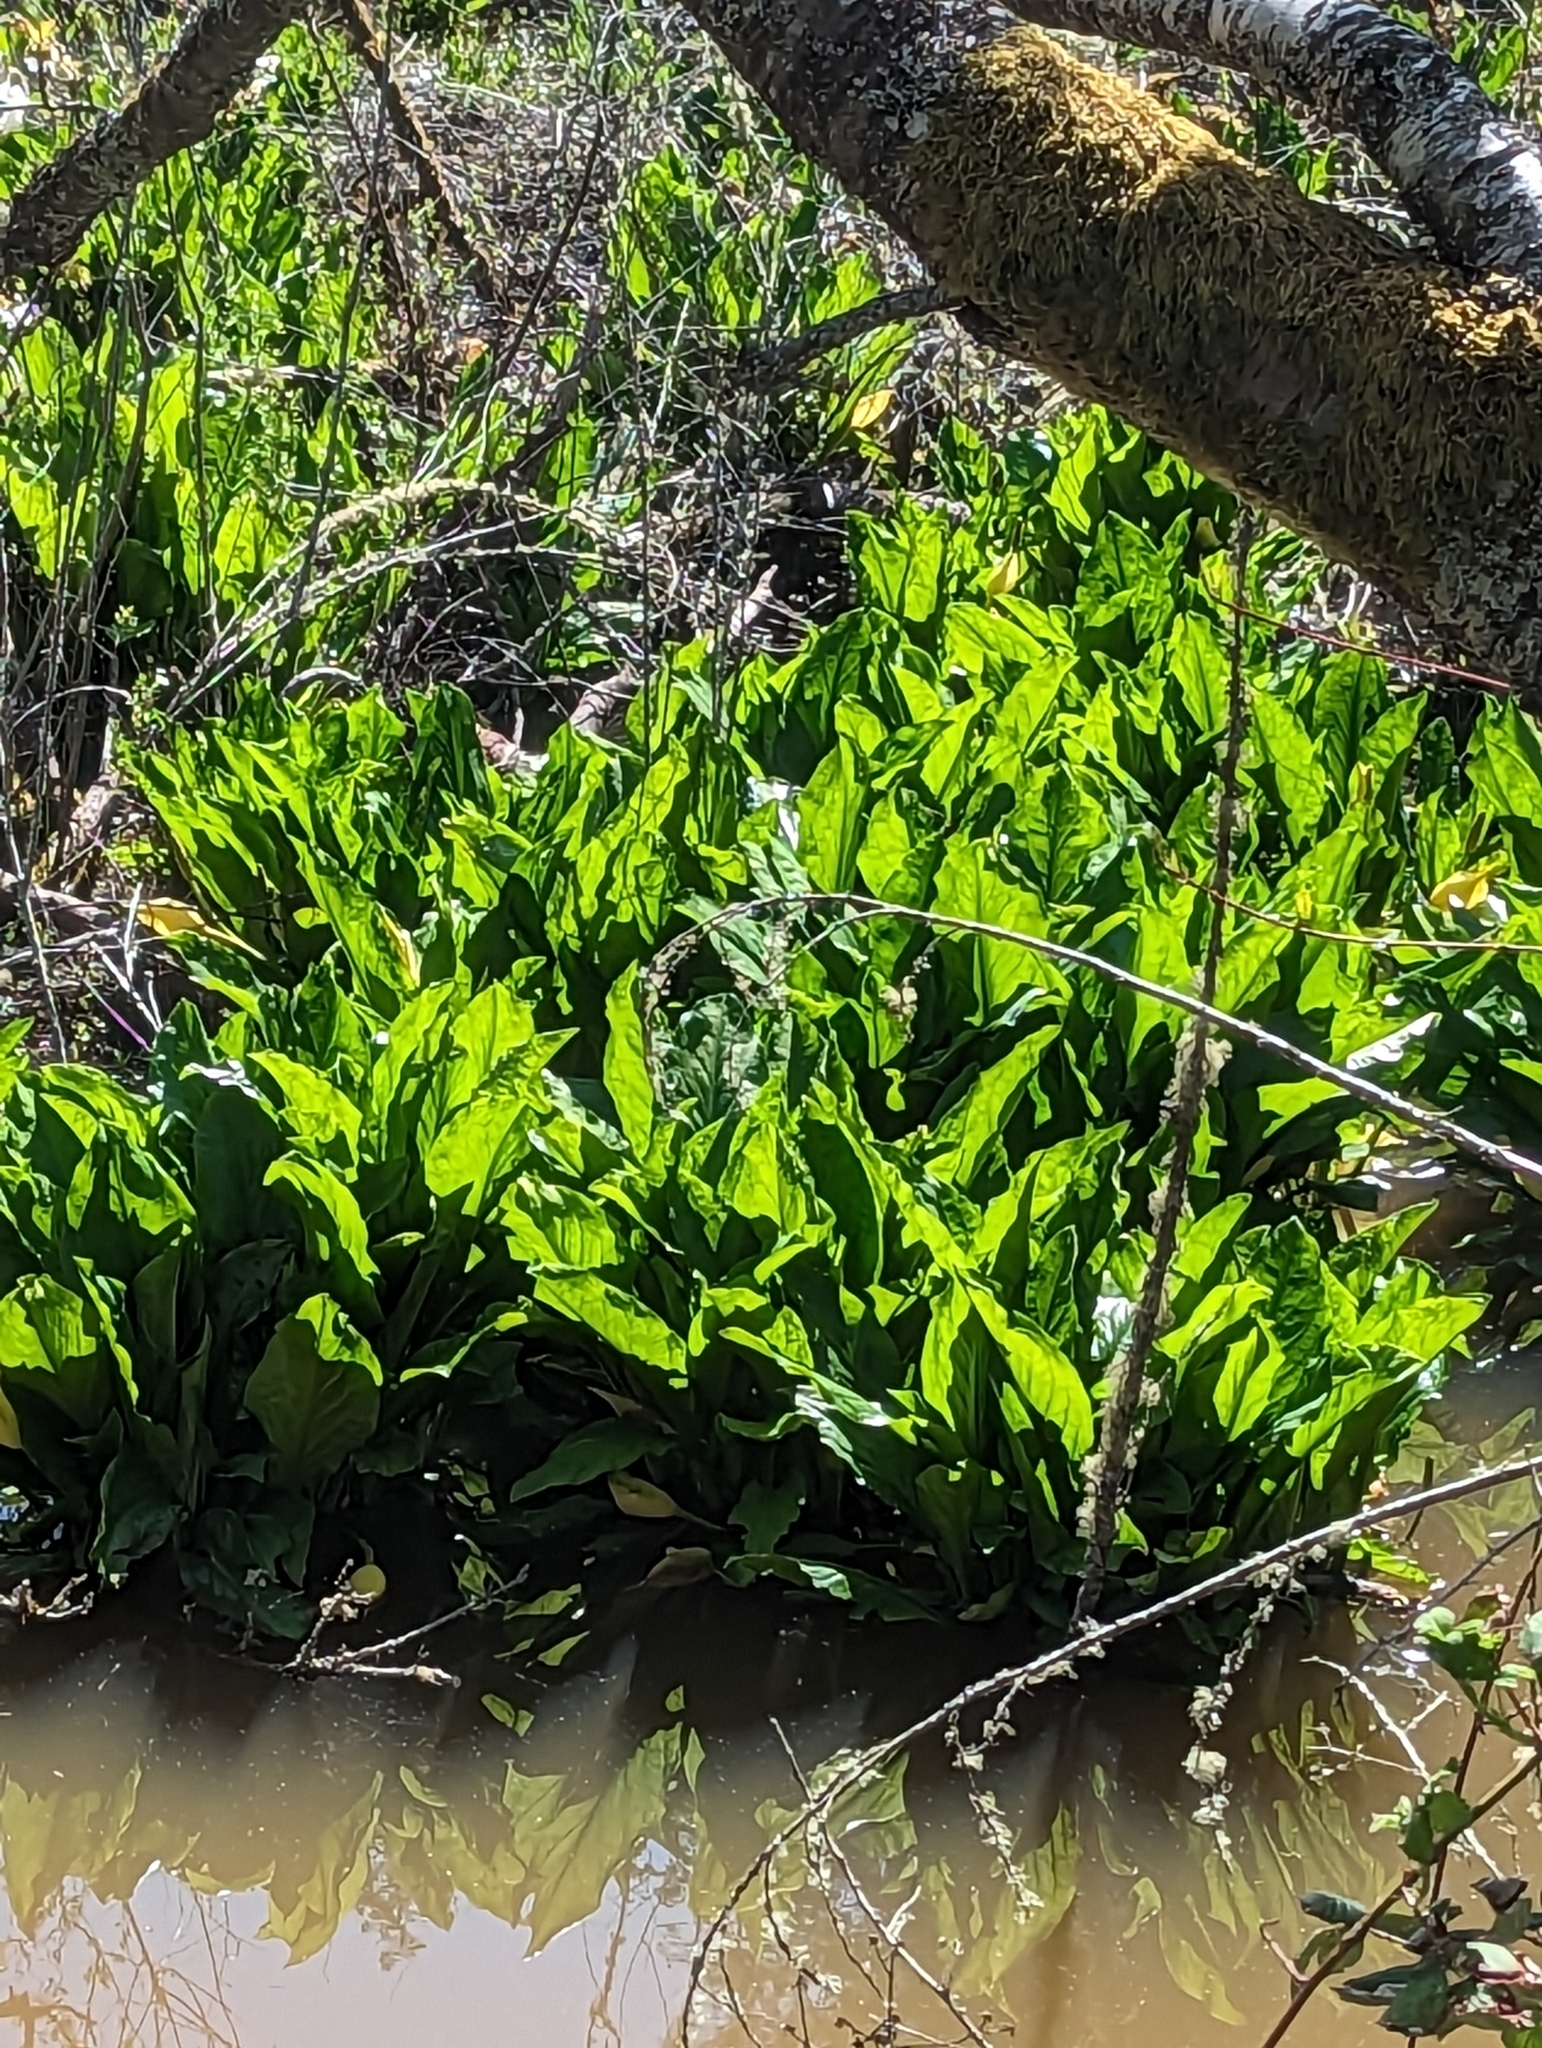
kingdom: Plantae
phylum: Tracheophyta
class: Liliopsida
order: Alismatales
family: Araceae
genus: Lysichiton
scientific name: Lysichiton americanus
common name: American skunk cabbage
